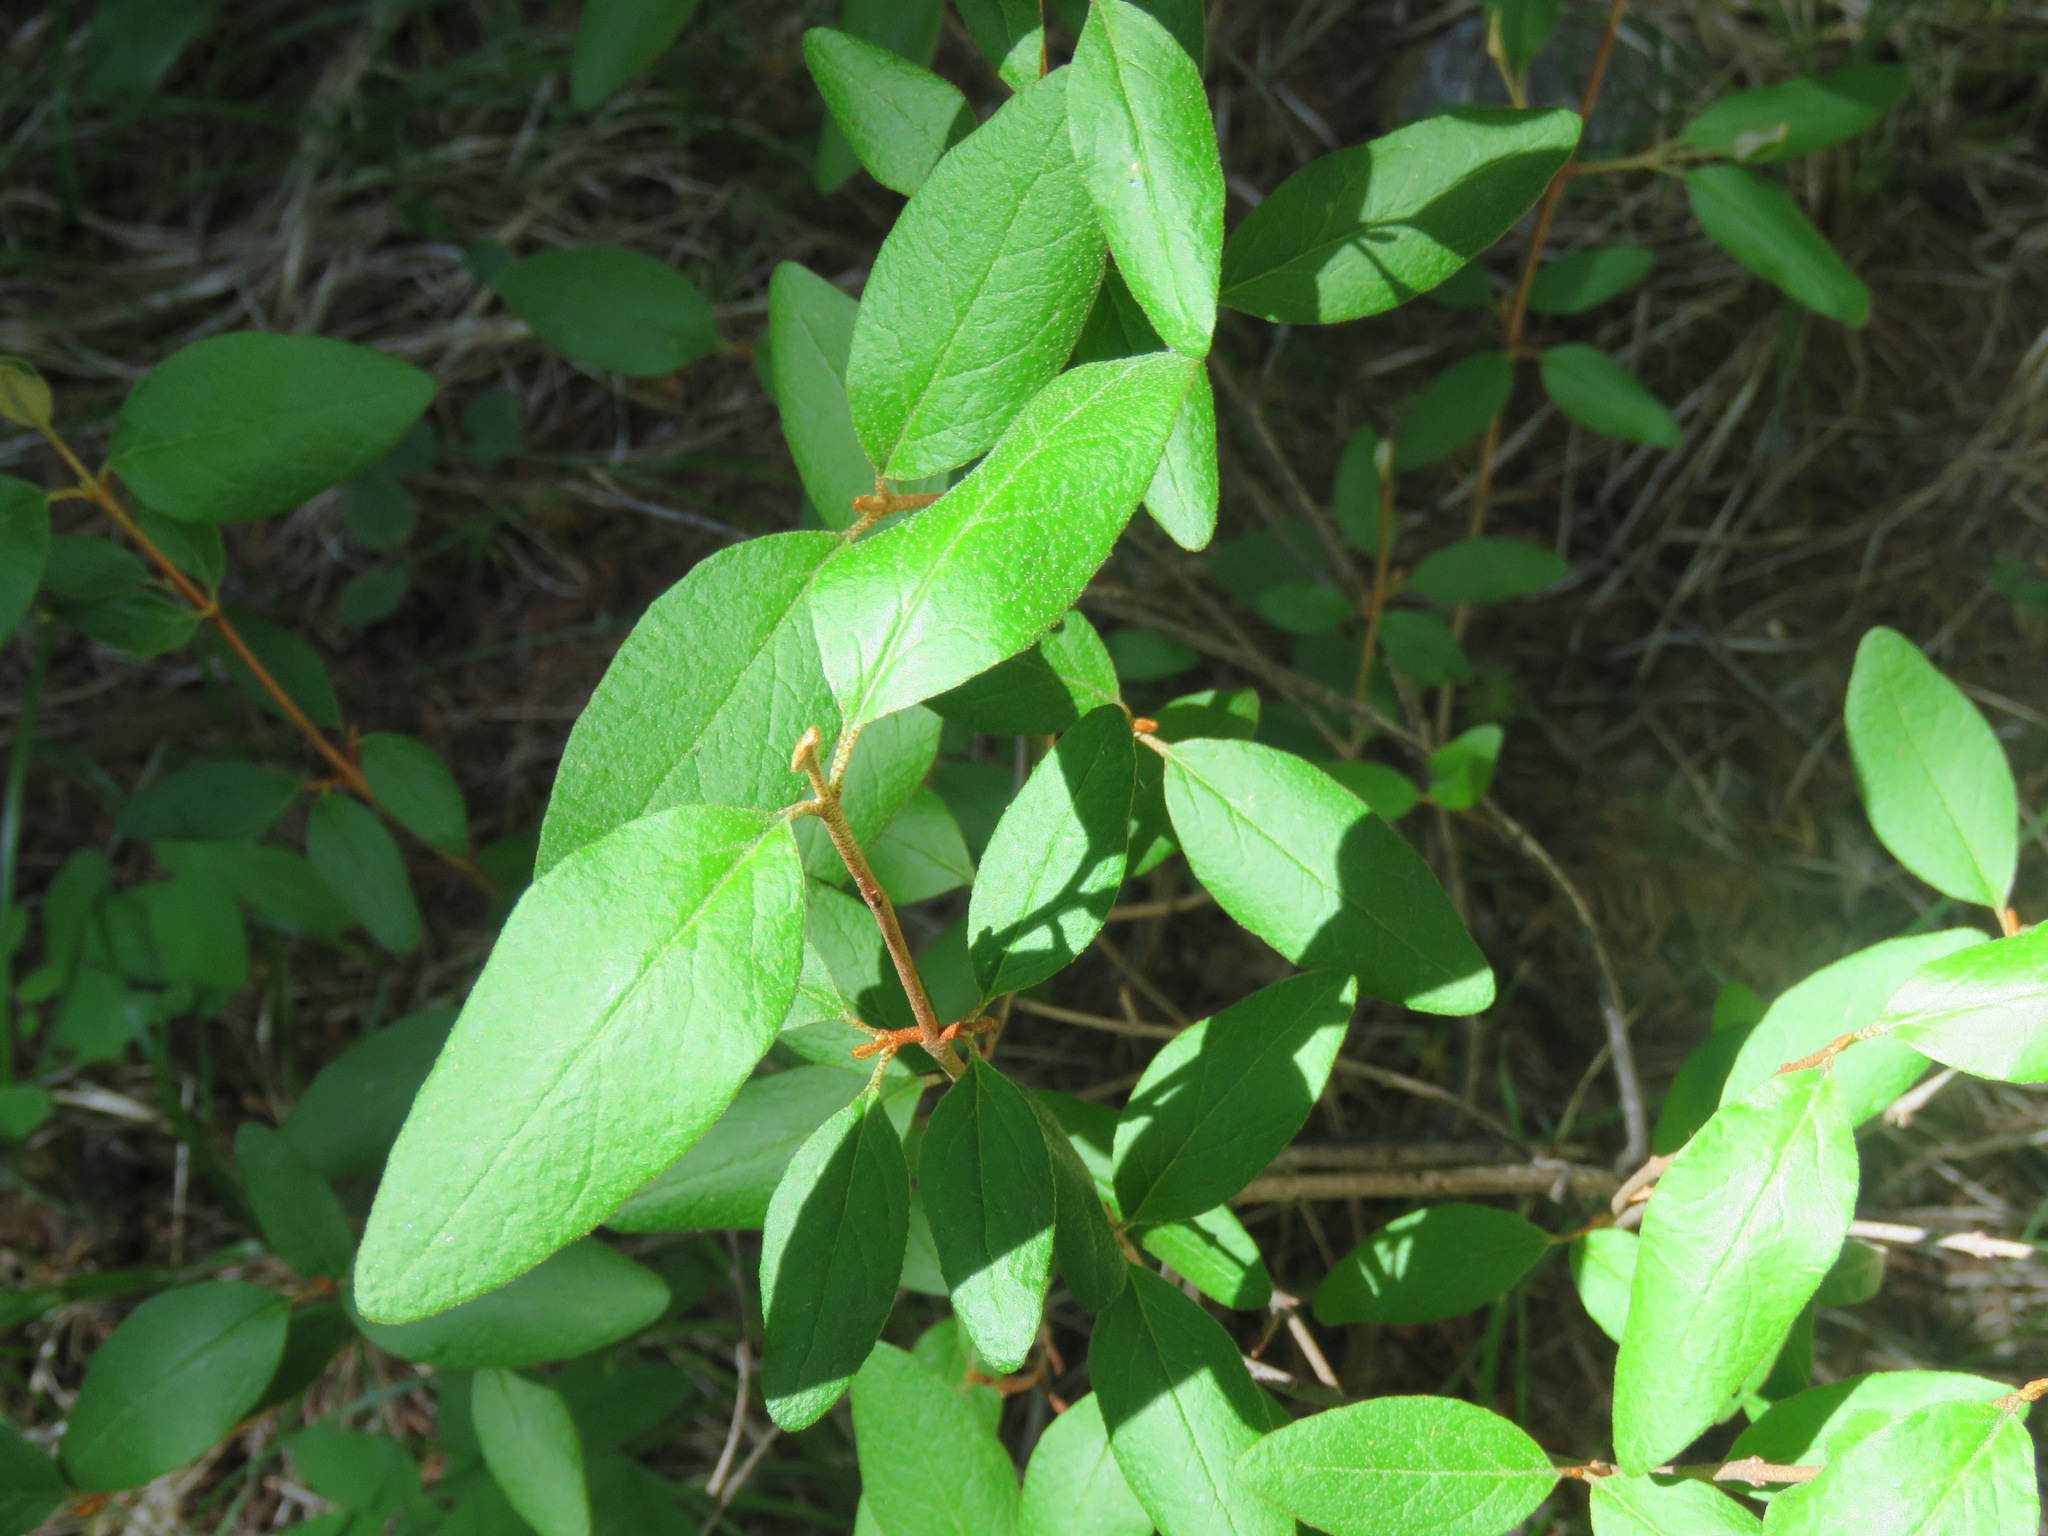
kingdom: Plantae
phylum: Tracheophyta
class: Magnoliopsida
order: Rosales
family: Elaeagnaceae
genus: Shepherdia
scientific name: Shepherdia canadensis
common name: Soapberry
